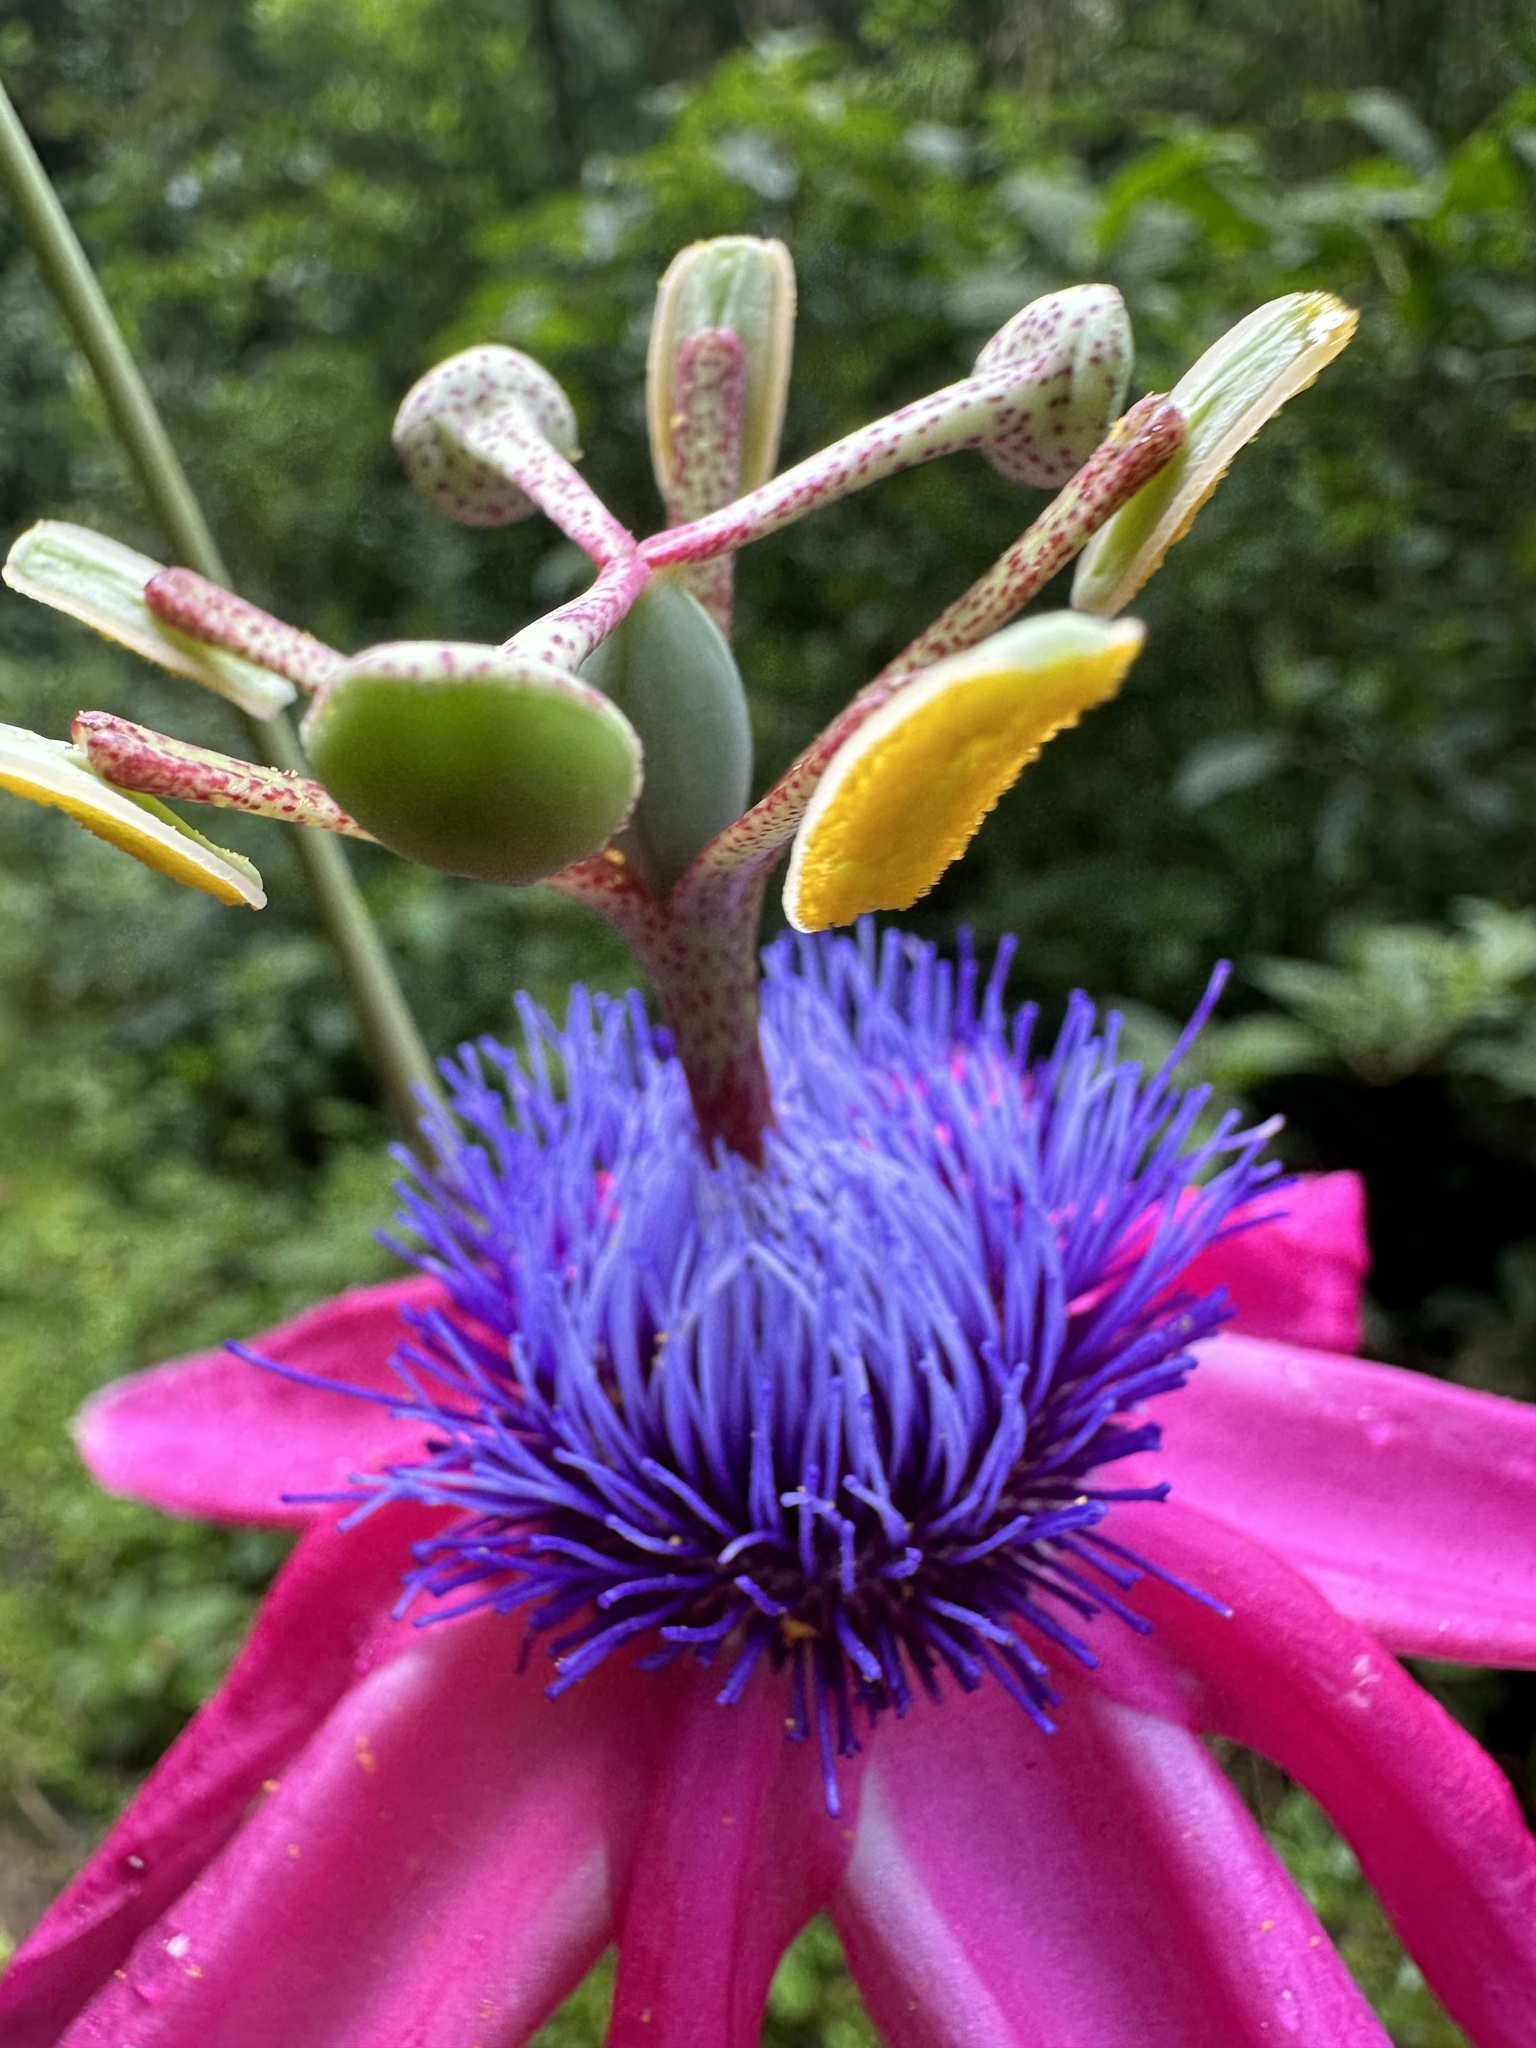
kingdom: Plantae
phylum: Tracheophyta
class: Magnoliopsida
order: Malpighiales
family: Passifloraceae
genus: Passiflora
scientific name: Passiflora longipes
